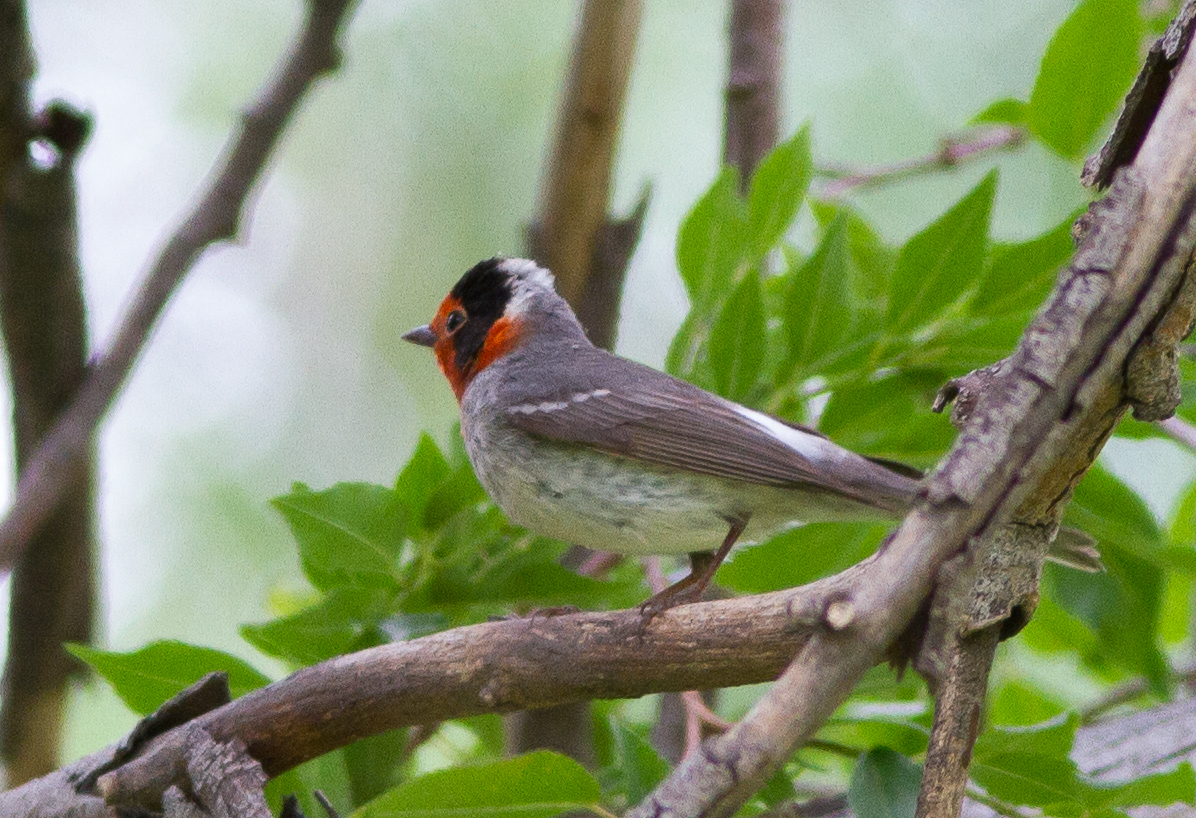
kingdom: Animalia
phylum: Chordata
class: Aves
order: Passeriformes
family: Parulidae
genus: Cardellina
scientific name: Cardellina rubrifrons
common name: Red-faced warbler
